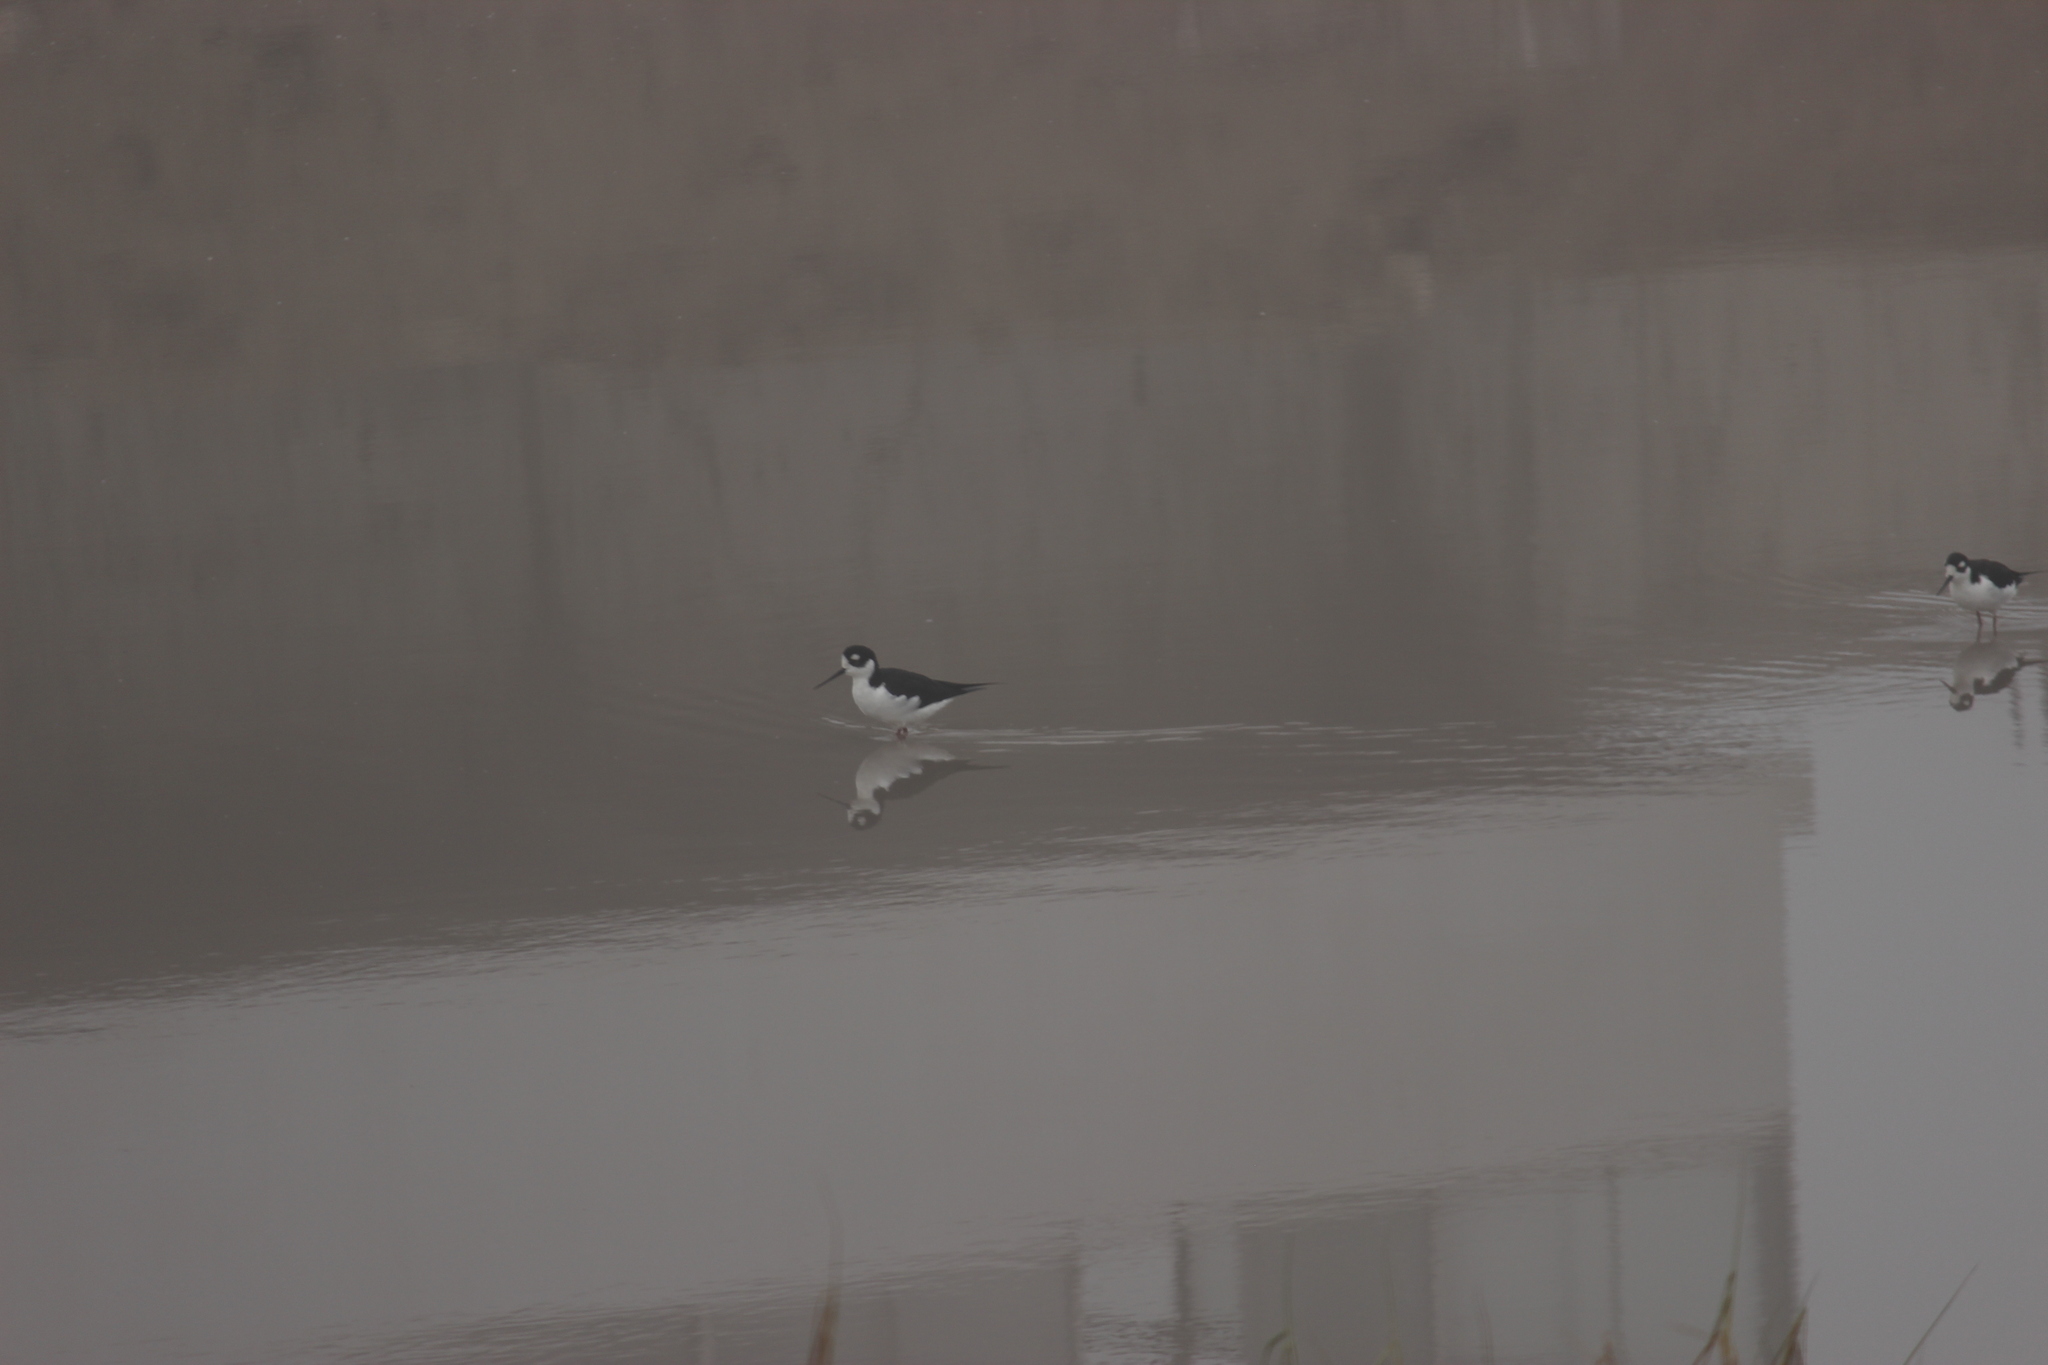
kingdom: Animalia
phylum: Chordata
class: Aves
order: Charadriiformes
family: Recurvirostridae
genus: Himantopus
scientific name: Himantopus mexicanus
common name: Black-necked stilt
